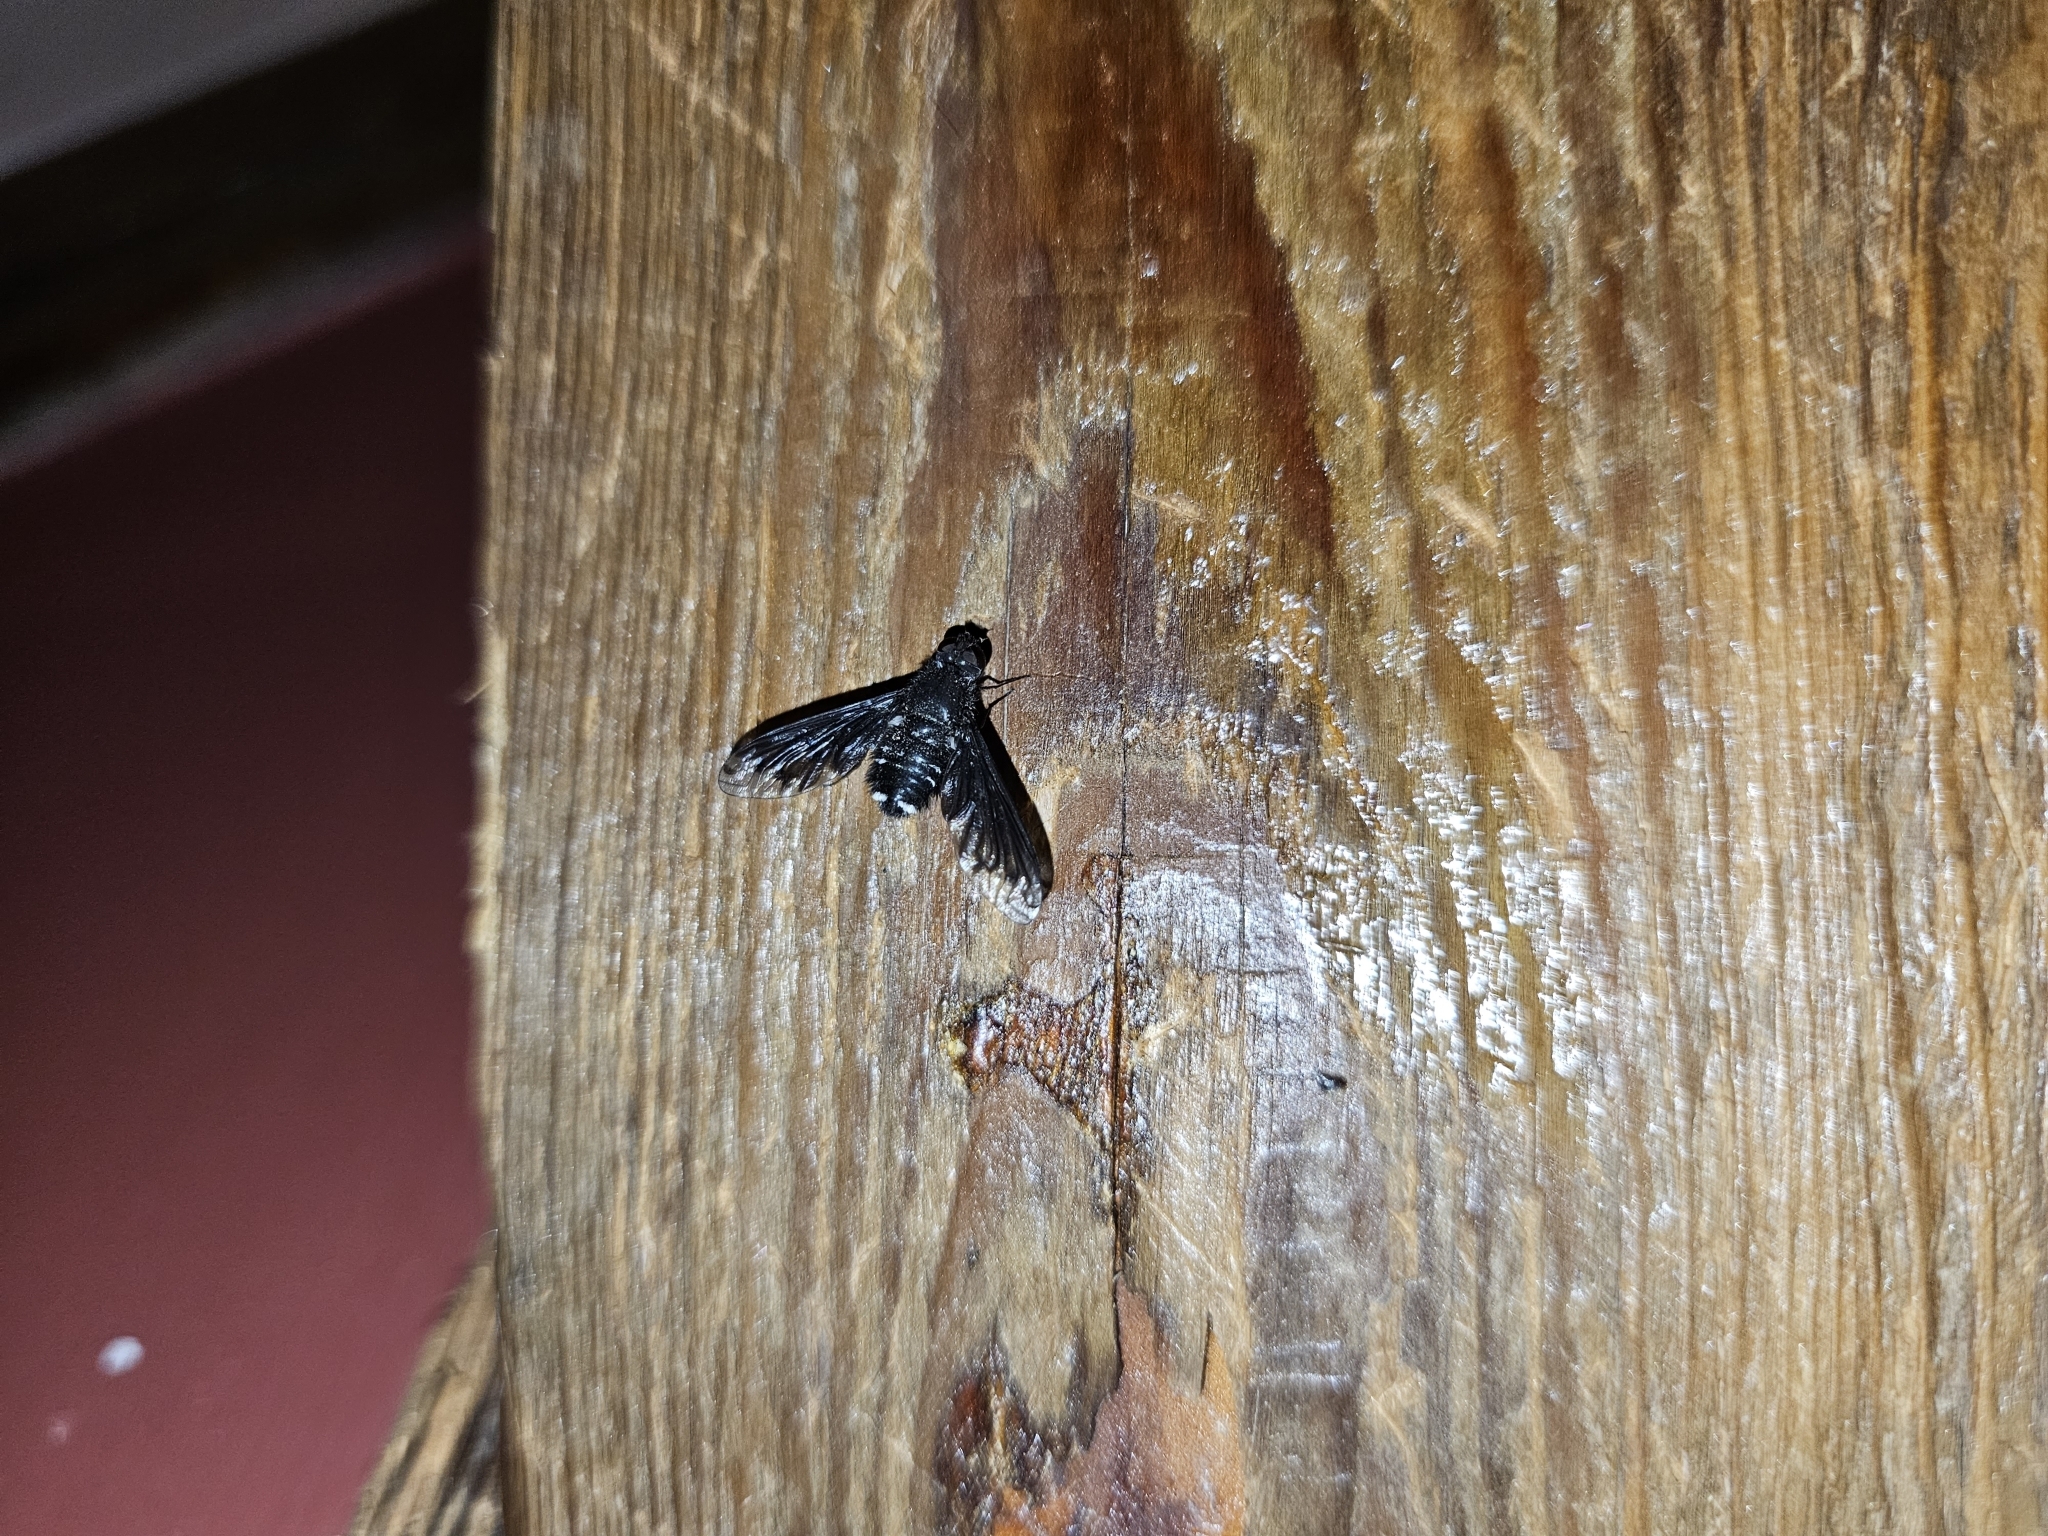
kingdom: Animalia
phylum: Arthropoda
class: Insecta
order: Diptera
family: Bombyliidae
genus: Anthrax
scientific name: Anthrax anthrax
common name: Anthracite bee-fly
